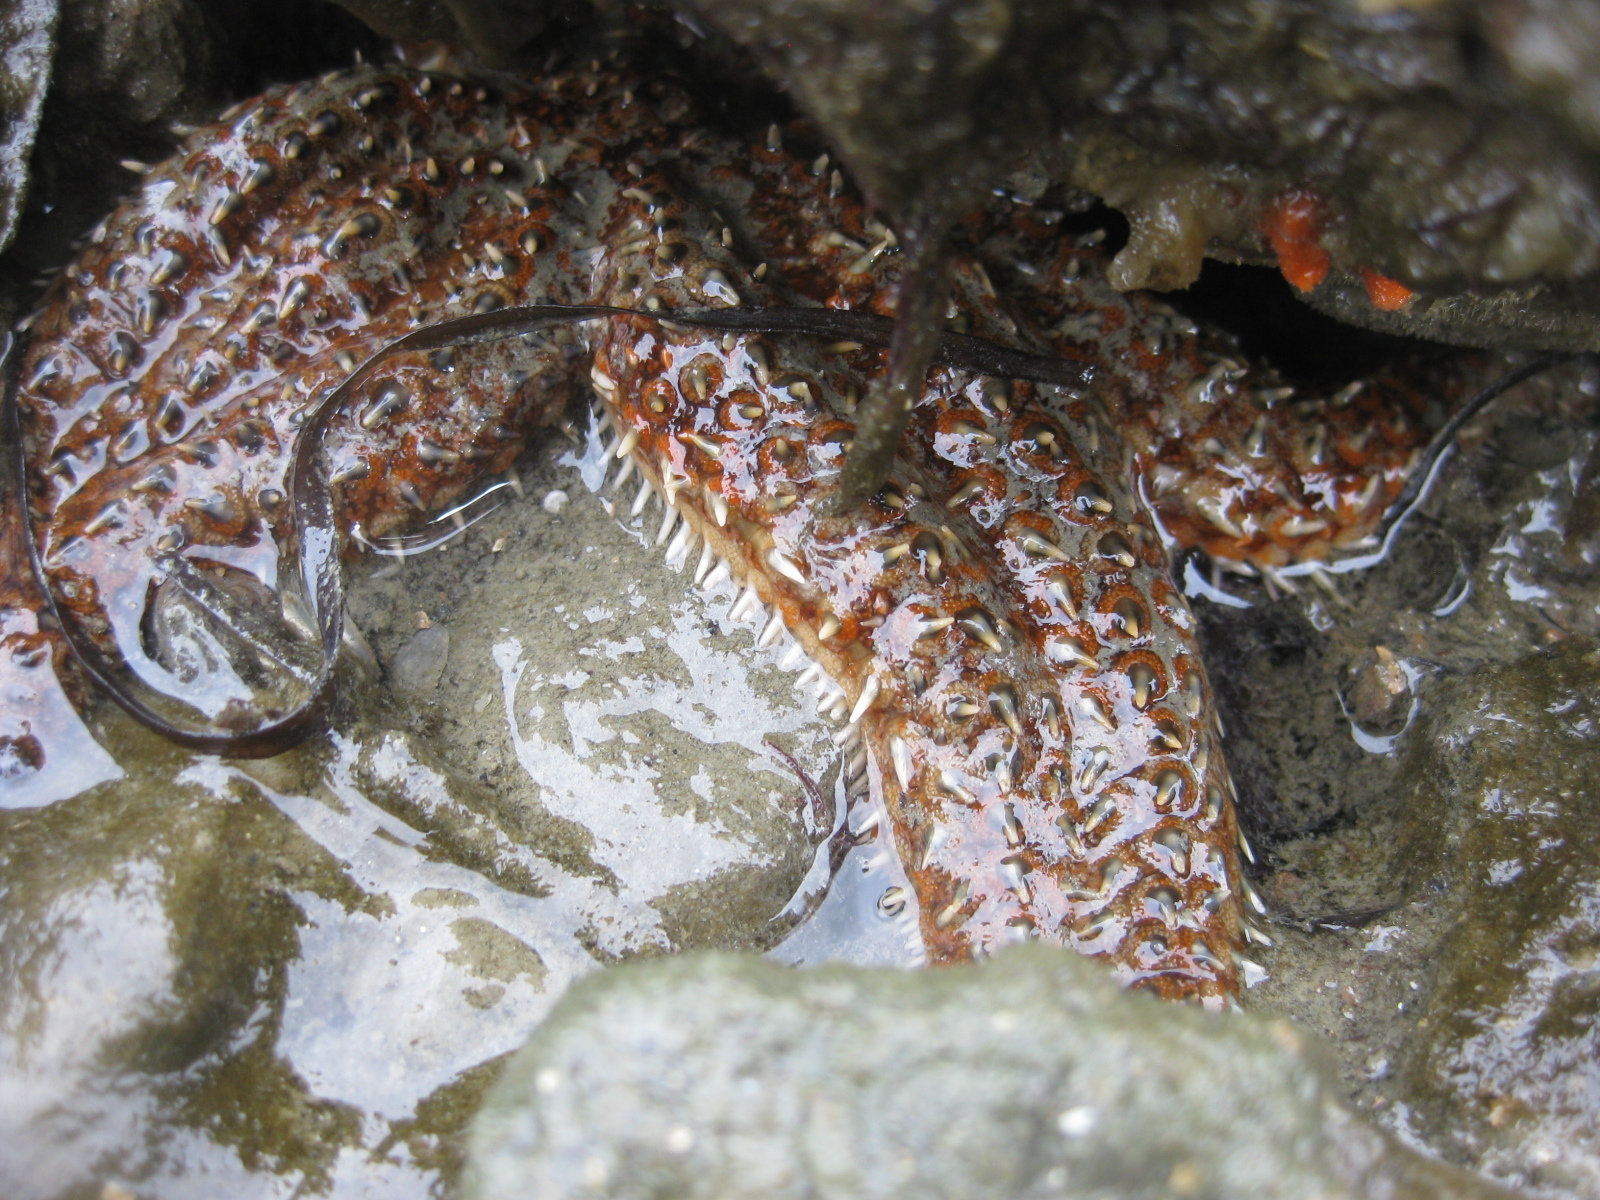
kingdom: Animalia
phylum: Echinodermata
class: Asteroidea
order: Forcipulatida
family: Asteriidae
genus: Coscinasterias
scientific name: Coscinasterias muricata
